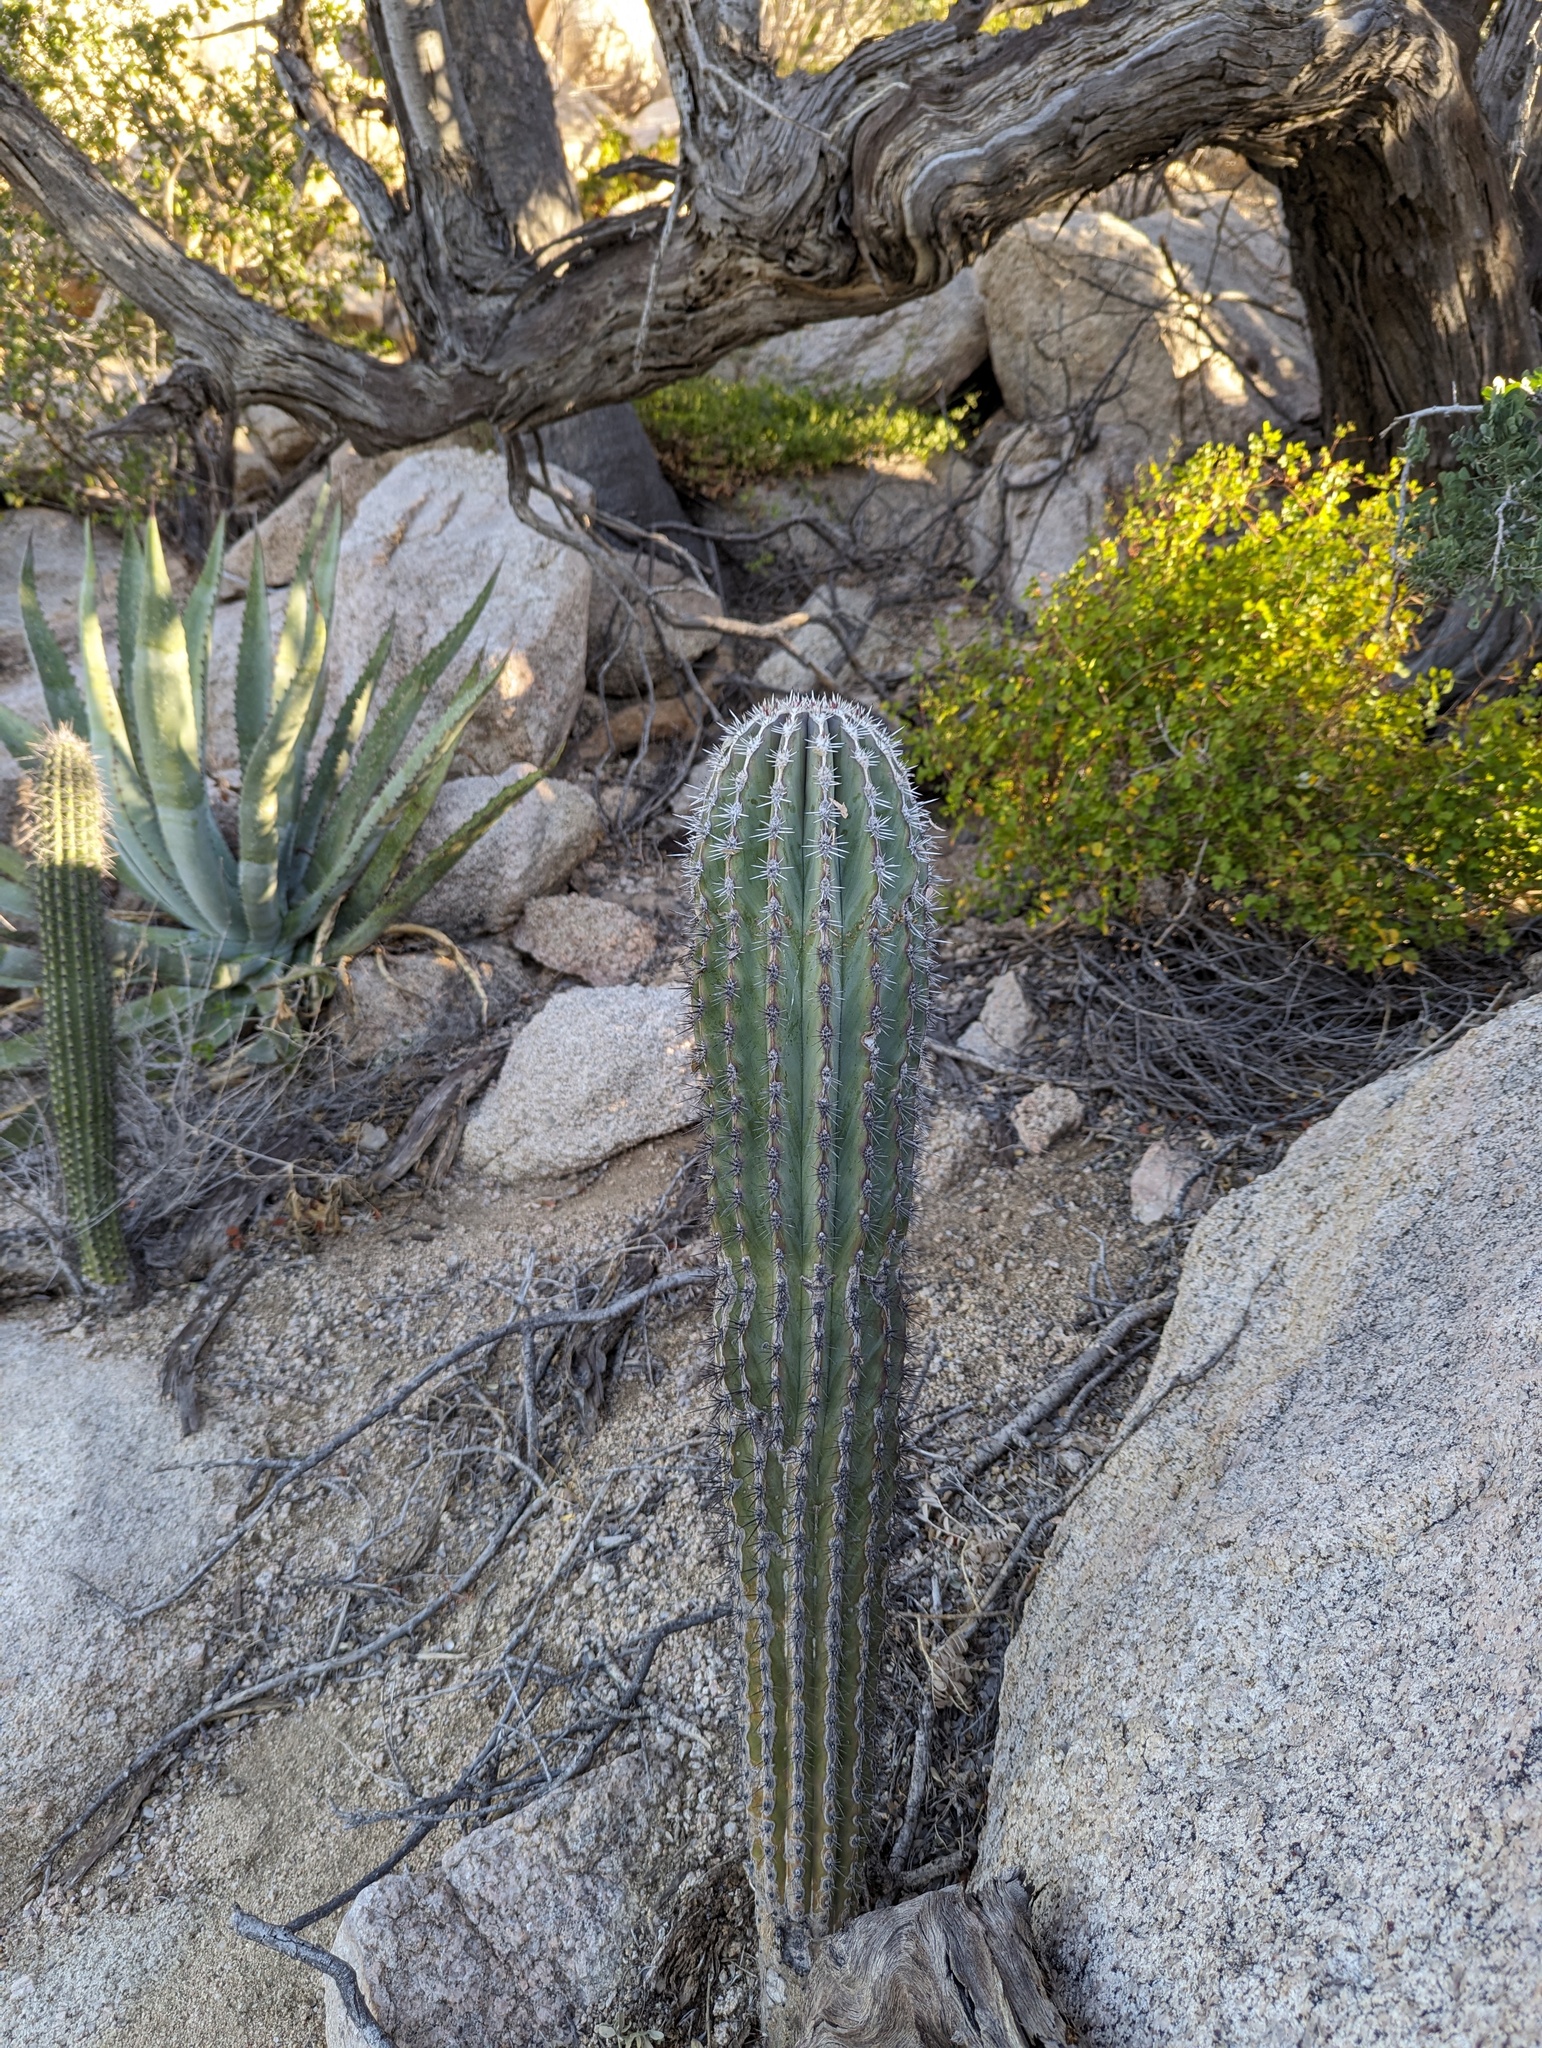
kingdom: Plantae
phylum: Tracheophyta
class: Magnoliopsida
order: Caryophyllales
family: Cactaceae
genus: Pachycereus
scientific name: Pachycereus pringlei
